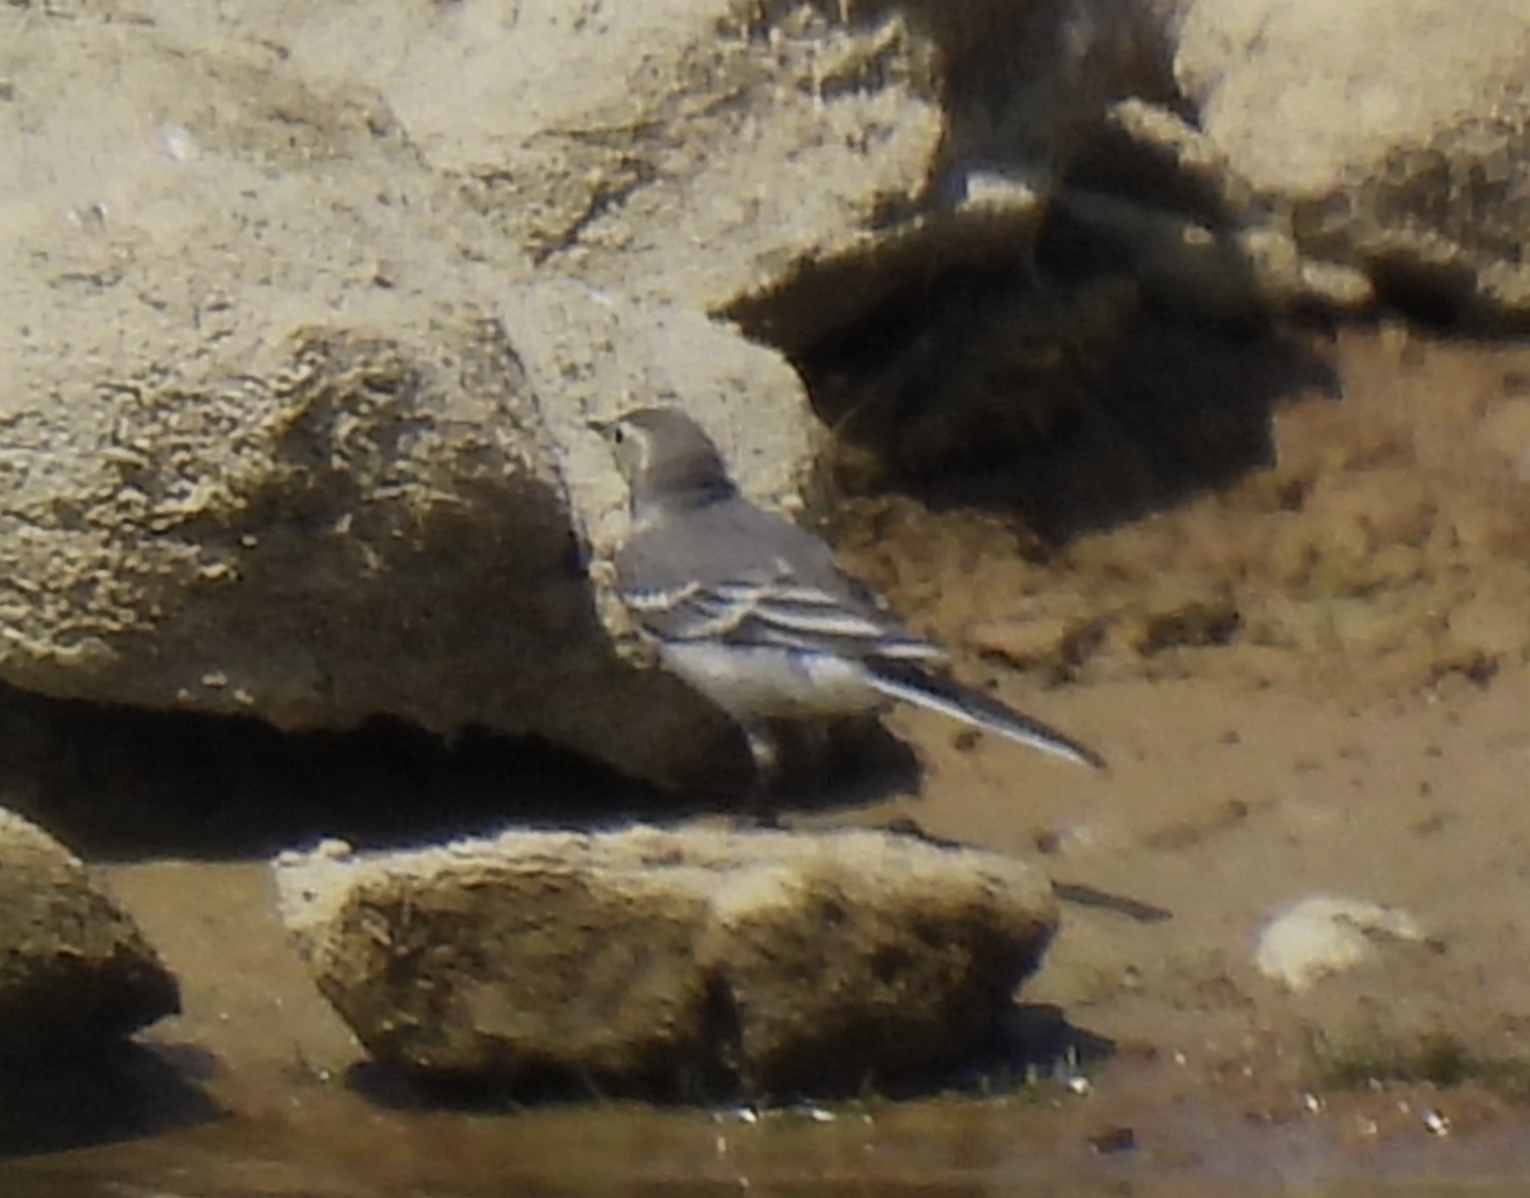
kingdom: Animalia
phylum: Chordata
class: Aves
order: Passeriformes
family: Motacillidae
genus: Motacilla
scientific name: Motacilla alba
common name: White wagtail
